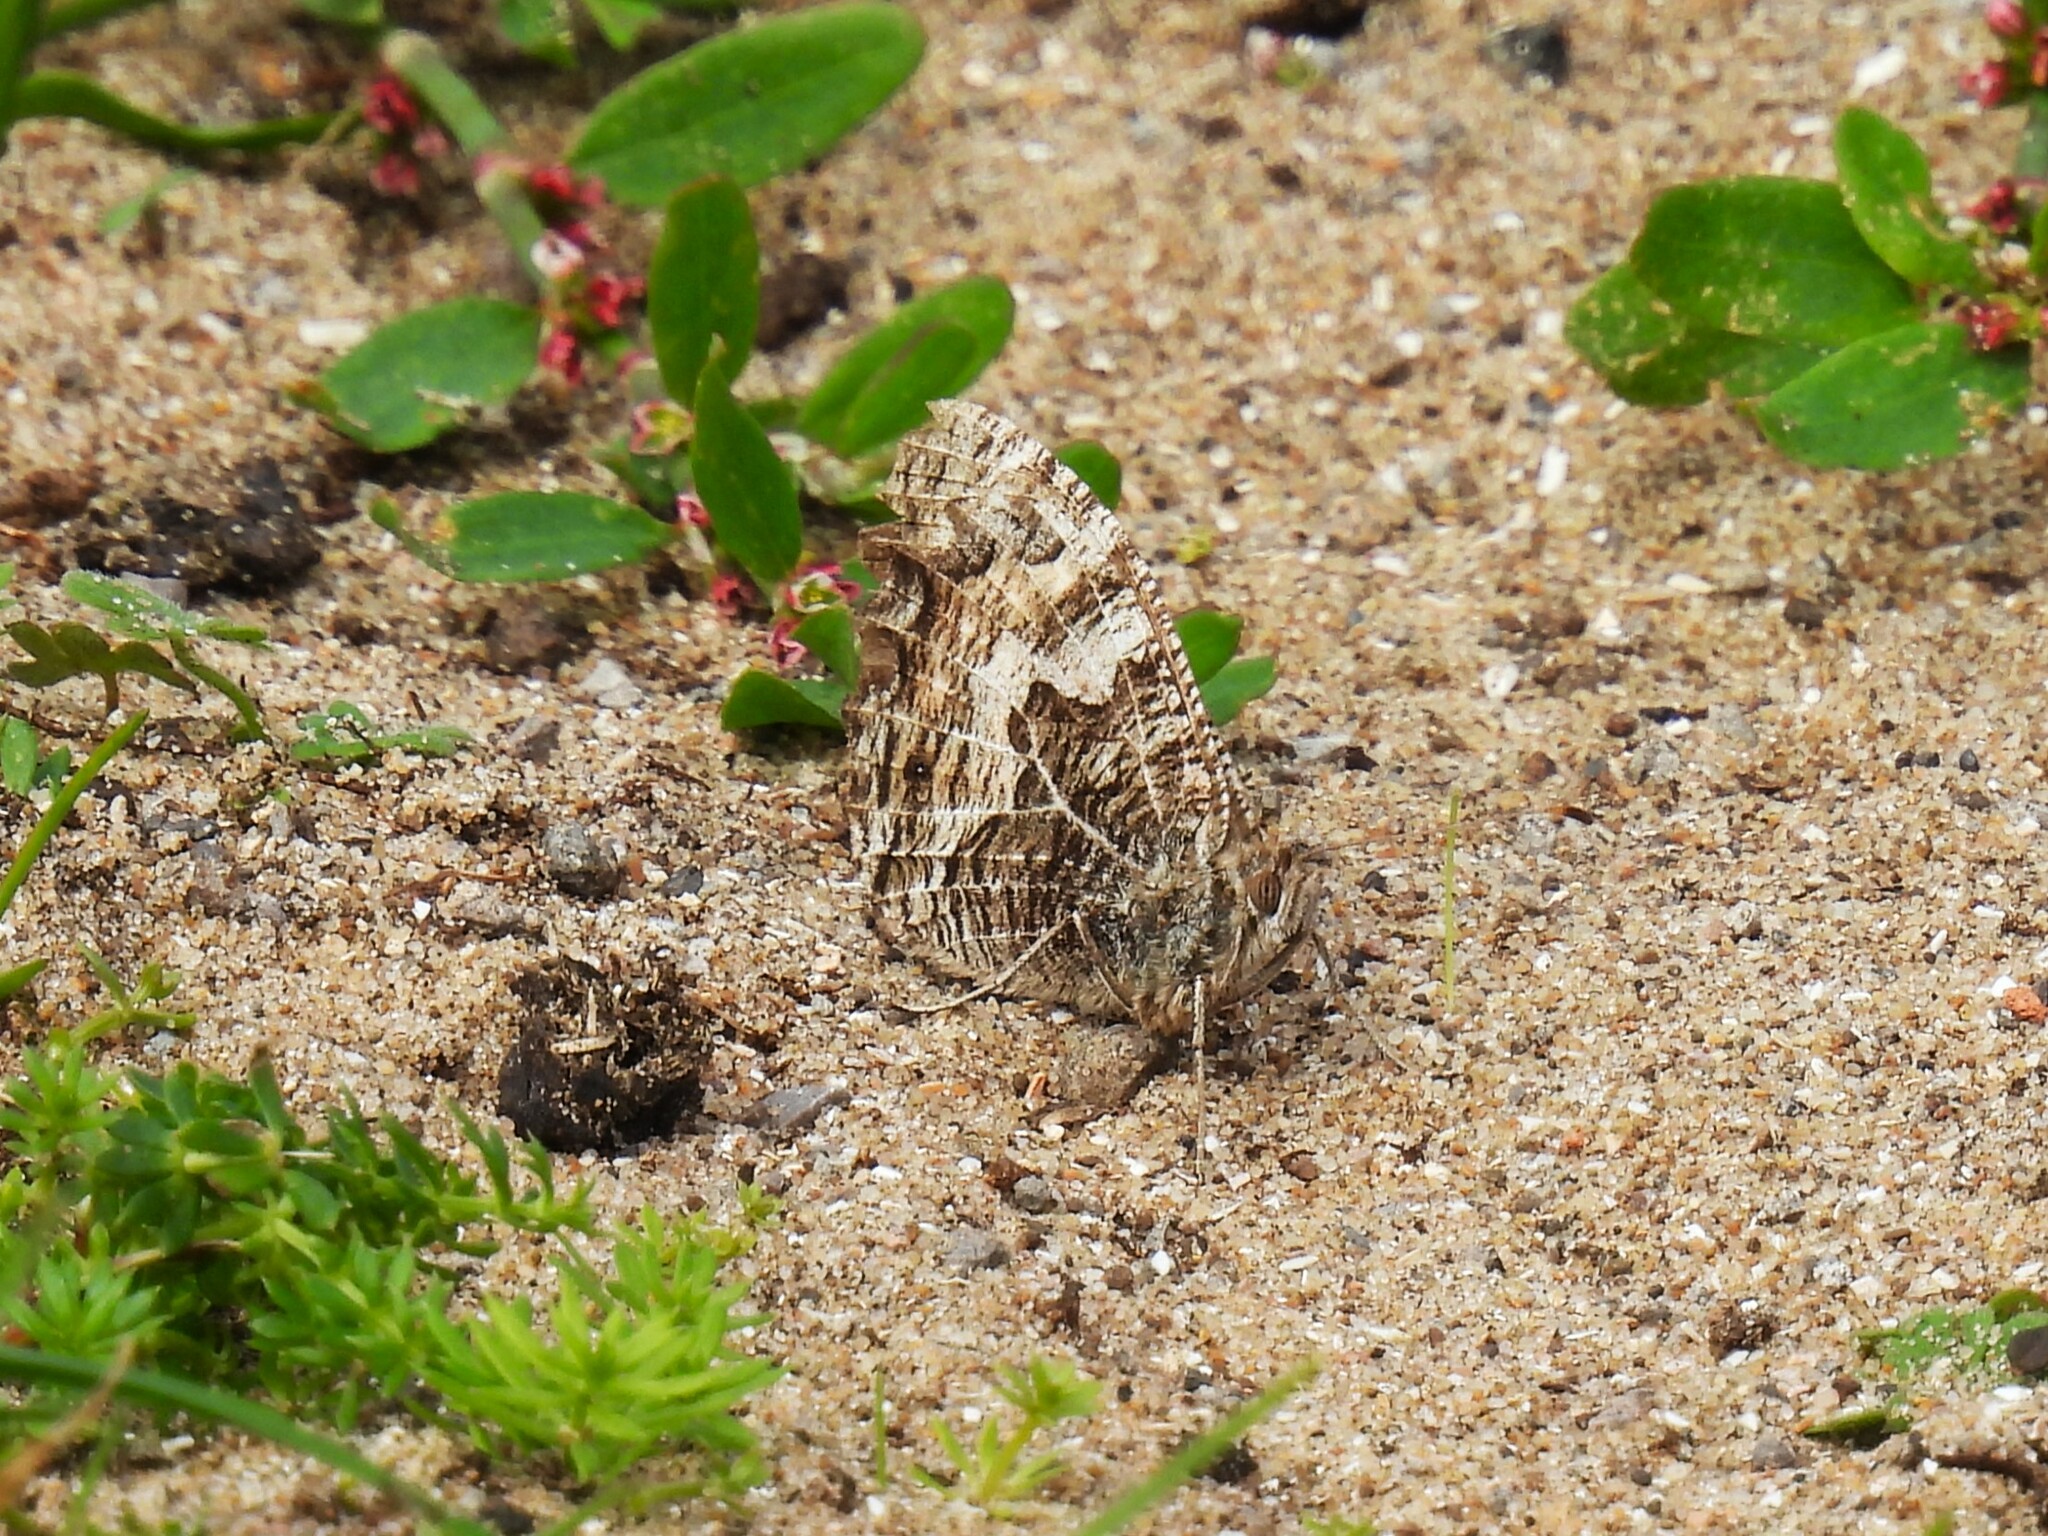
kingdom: Animalia
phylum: Arthropoda
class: Insecta
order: Lepidoptera
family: Nymphalidae
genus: Hipparchia
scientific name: Hipparchia semele
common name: Grayling
